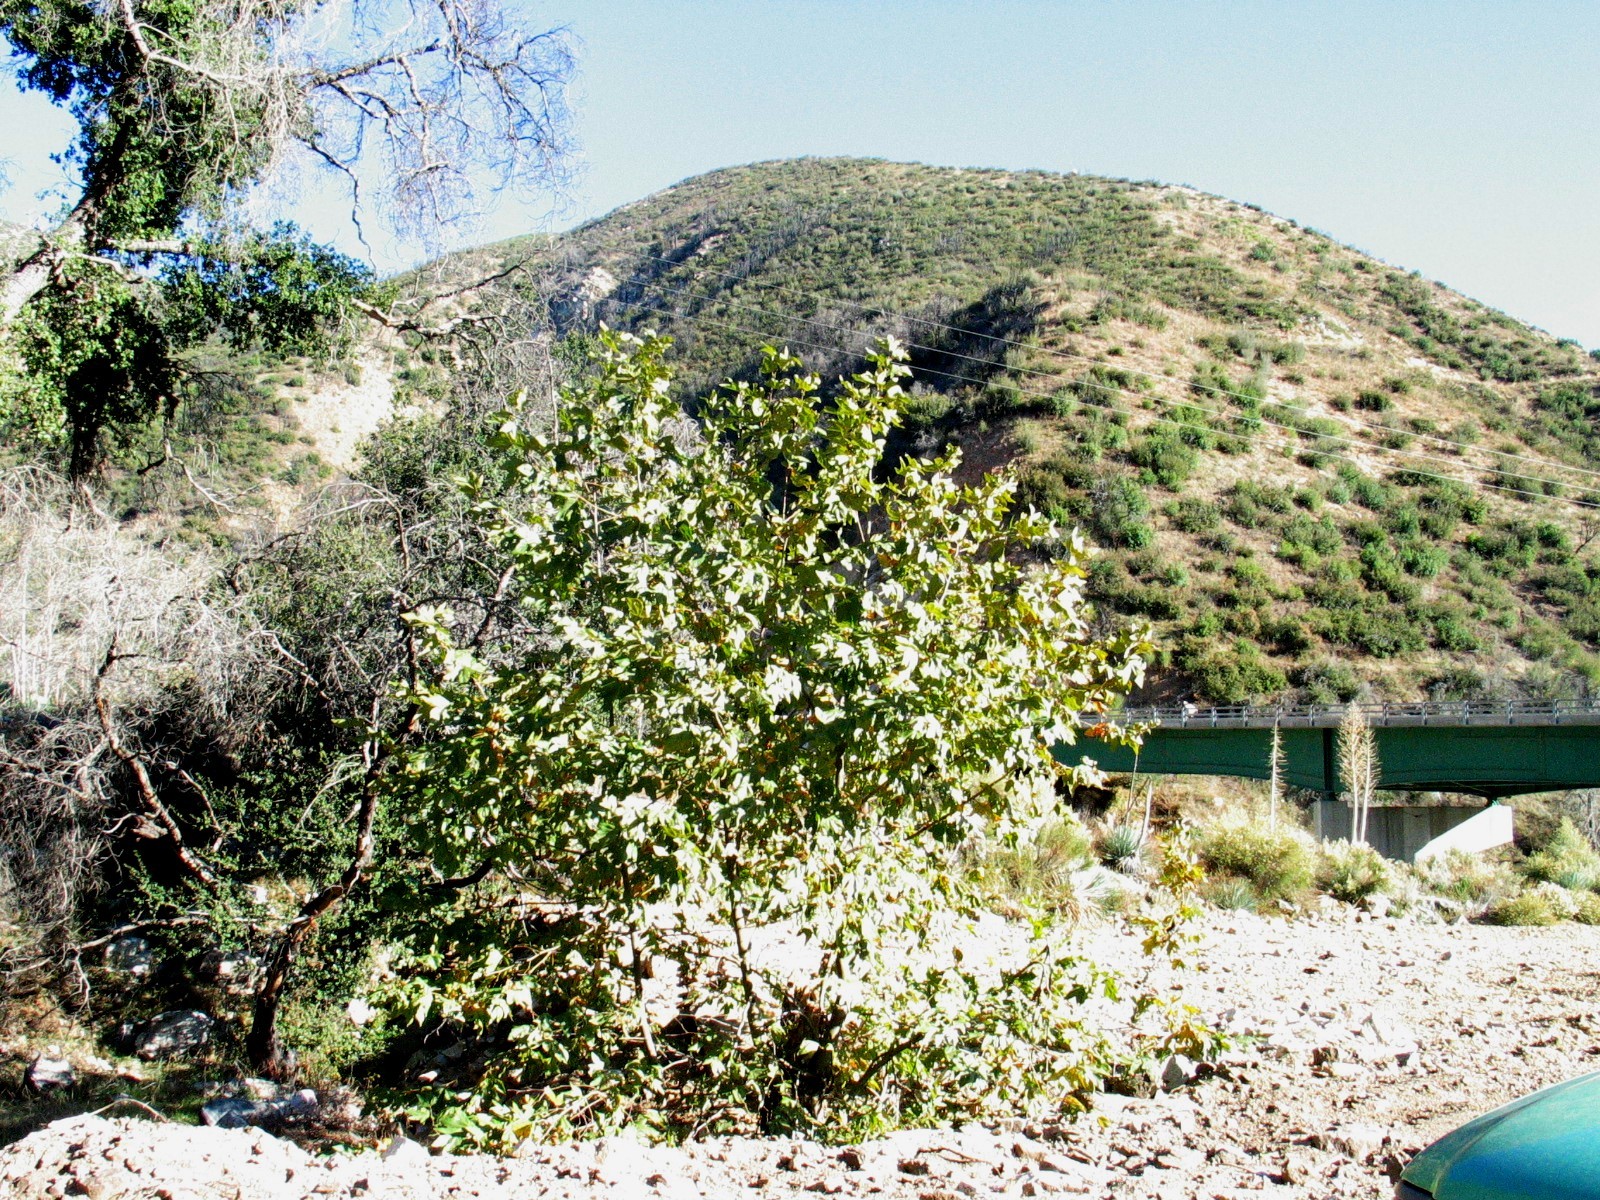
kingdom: Plantae
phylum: Tracheophyta
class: Liliopsida
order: Asparagales
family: Asparagaceae
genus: Hesperoyucca
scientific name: Hesperoyucca whipplei
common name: Our lord's-candle
